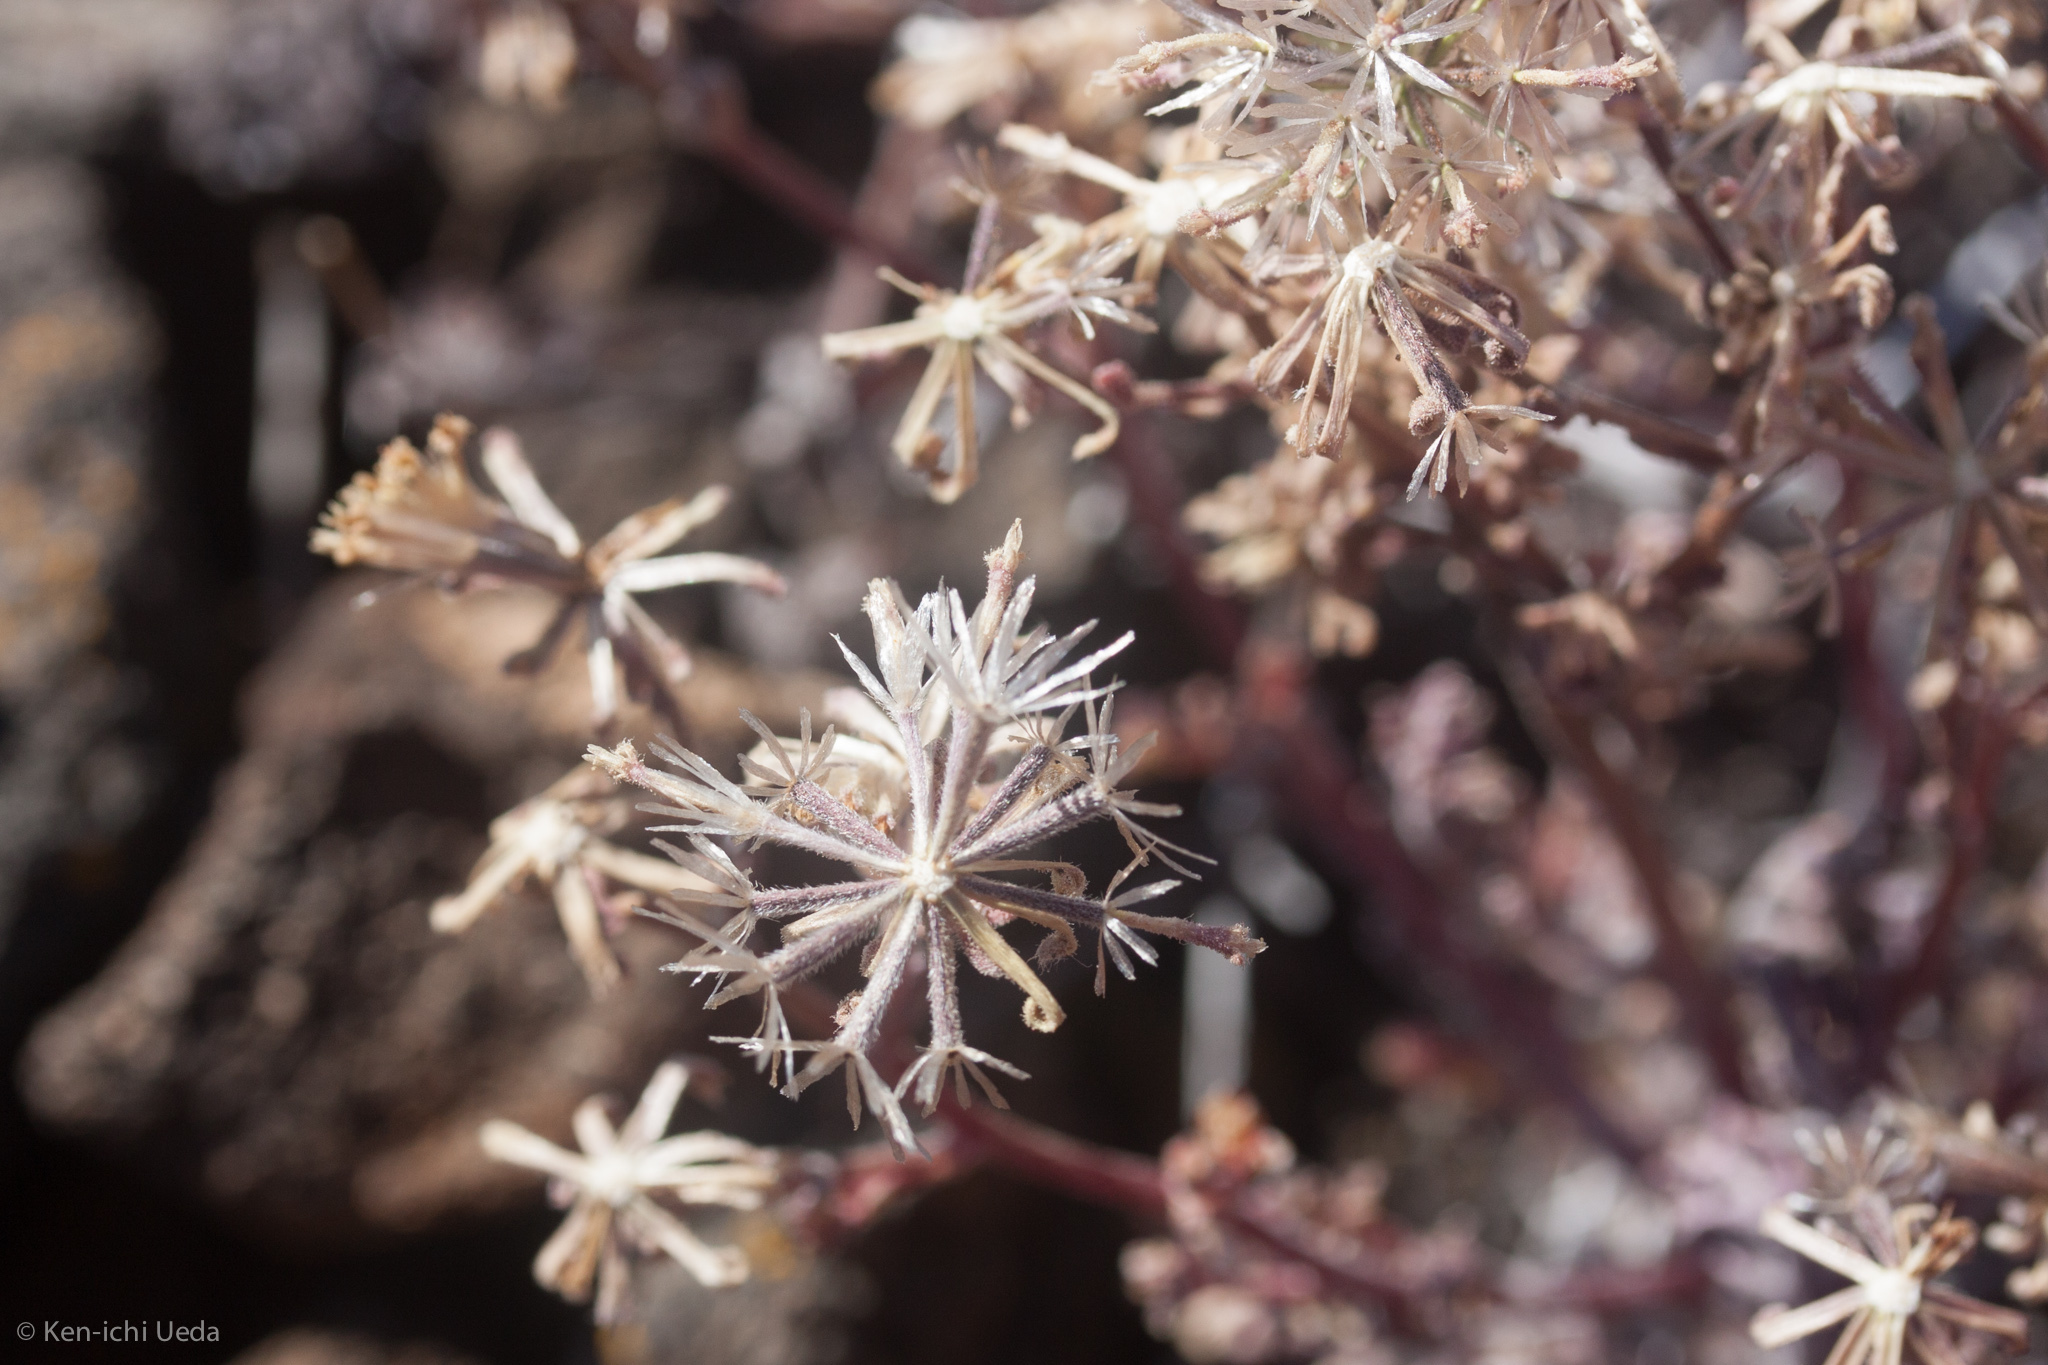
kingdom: Plantae
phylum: Tracheophyta
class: Magnoliopsida
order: Asterales
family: Asteraceae
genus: Chaenactis
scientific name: Chaenactis douglasii
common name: Hoary pincushion
